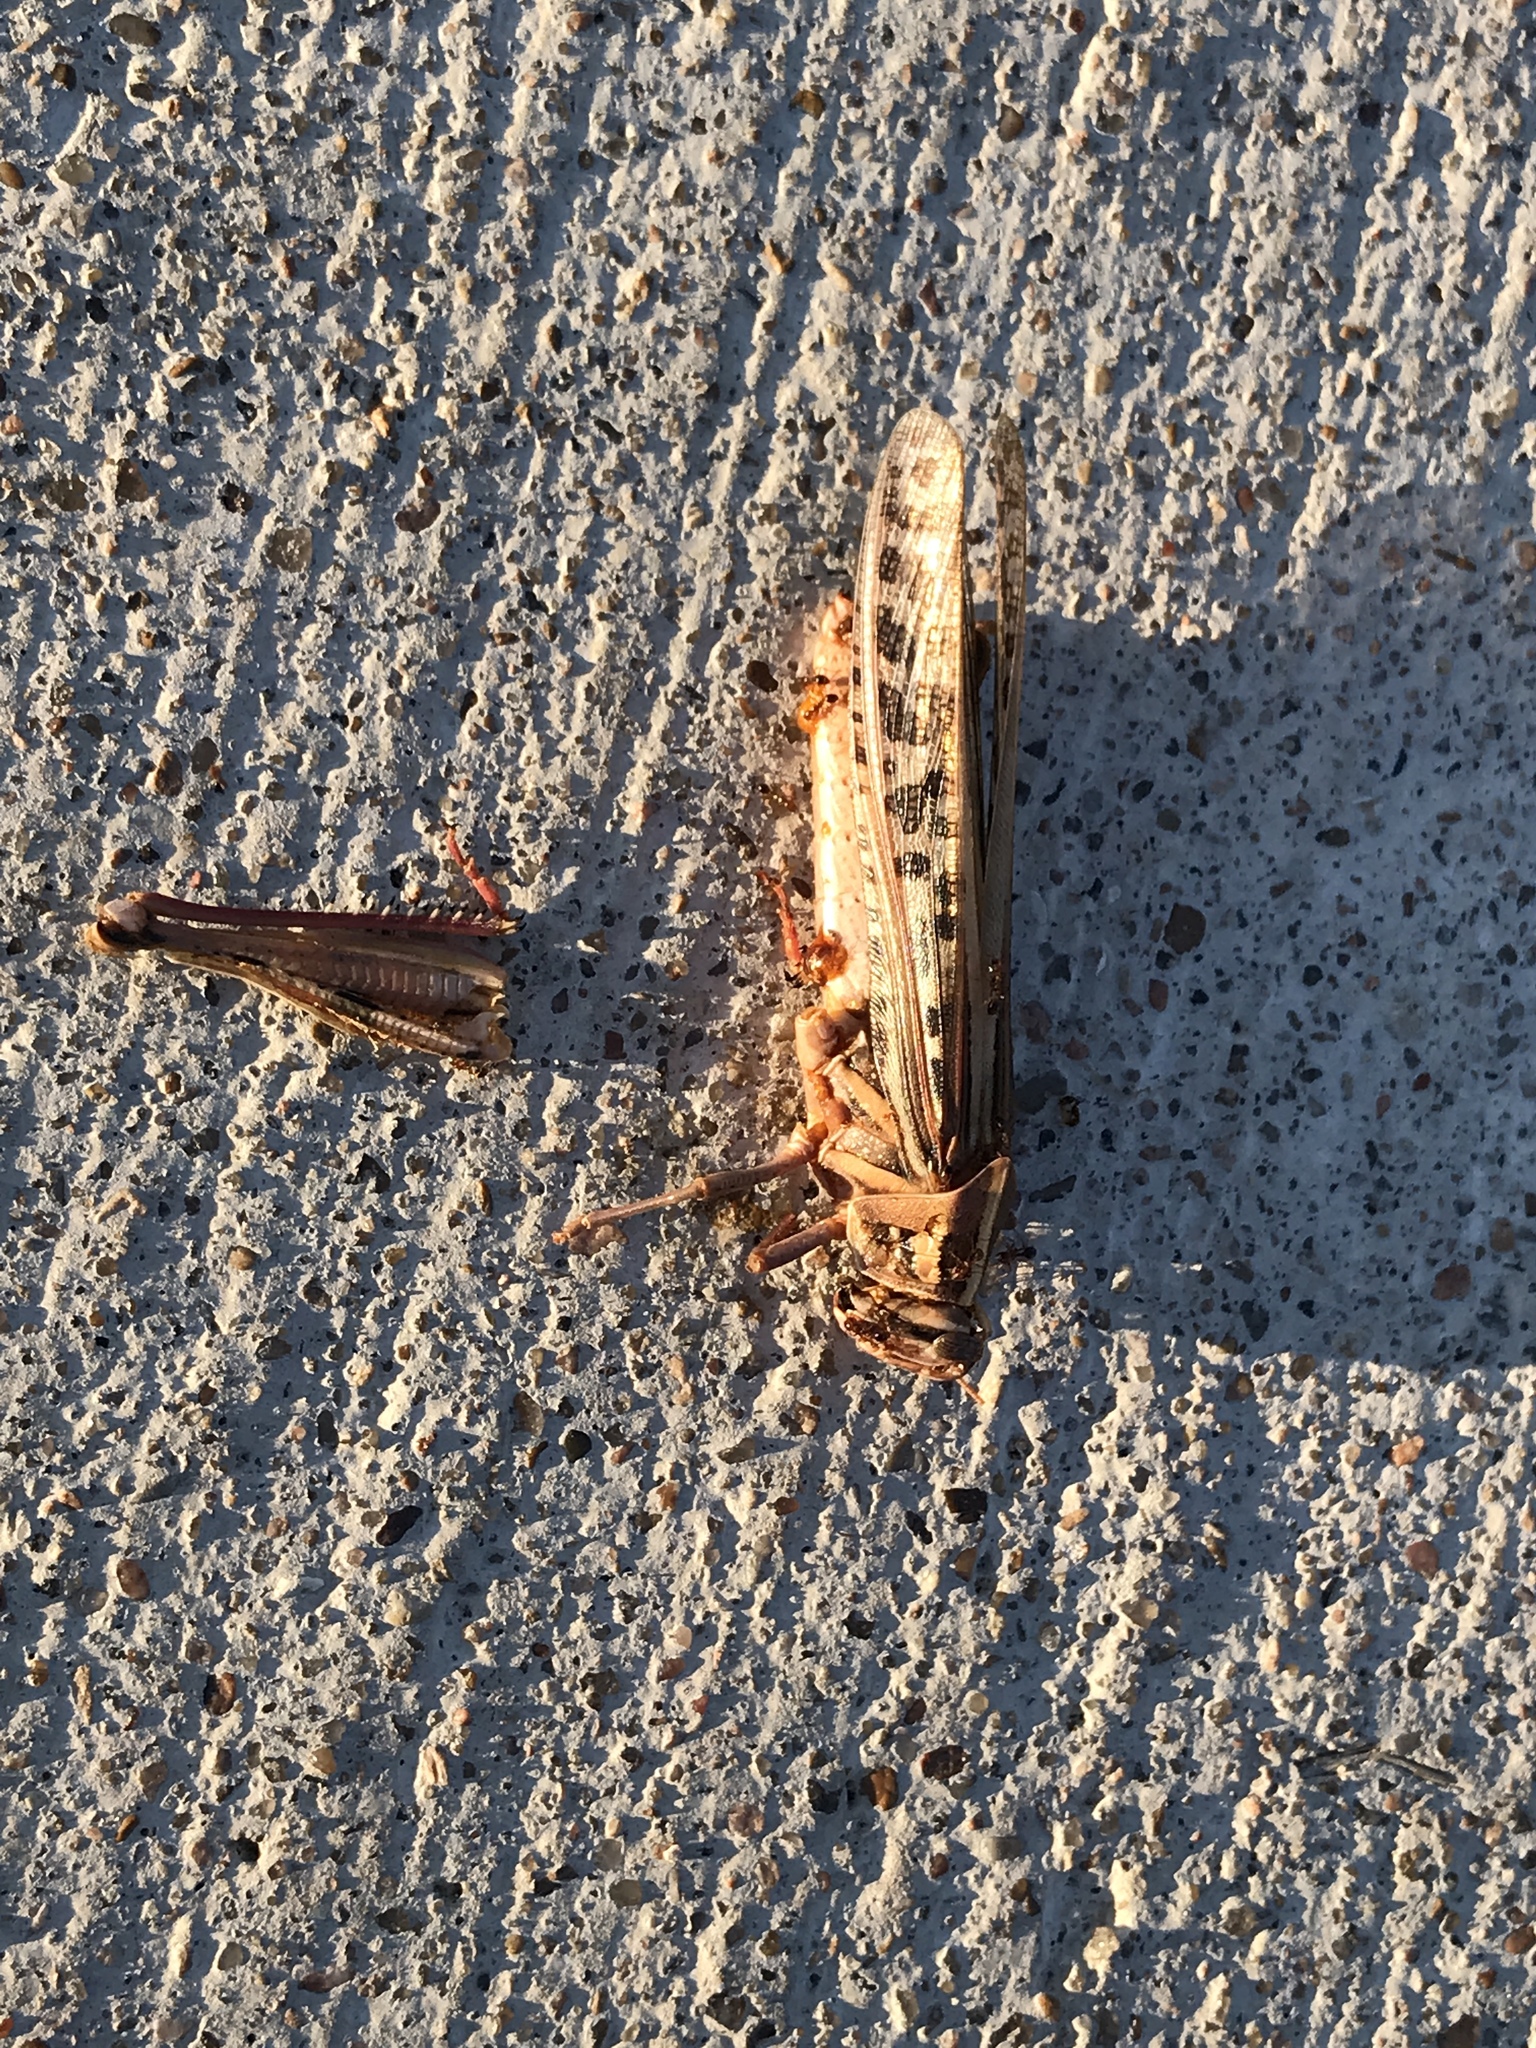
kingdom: Animalia
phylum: Arthropoda
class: Insecta
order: Orthoptera
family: Acrididae
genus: Schistocerca
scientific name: Schistocerca americana
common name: American bird locust
